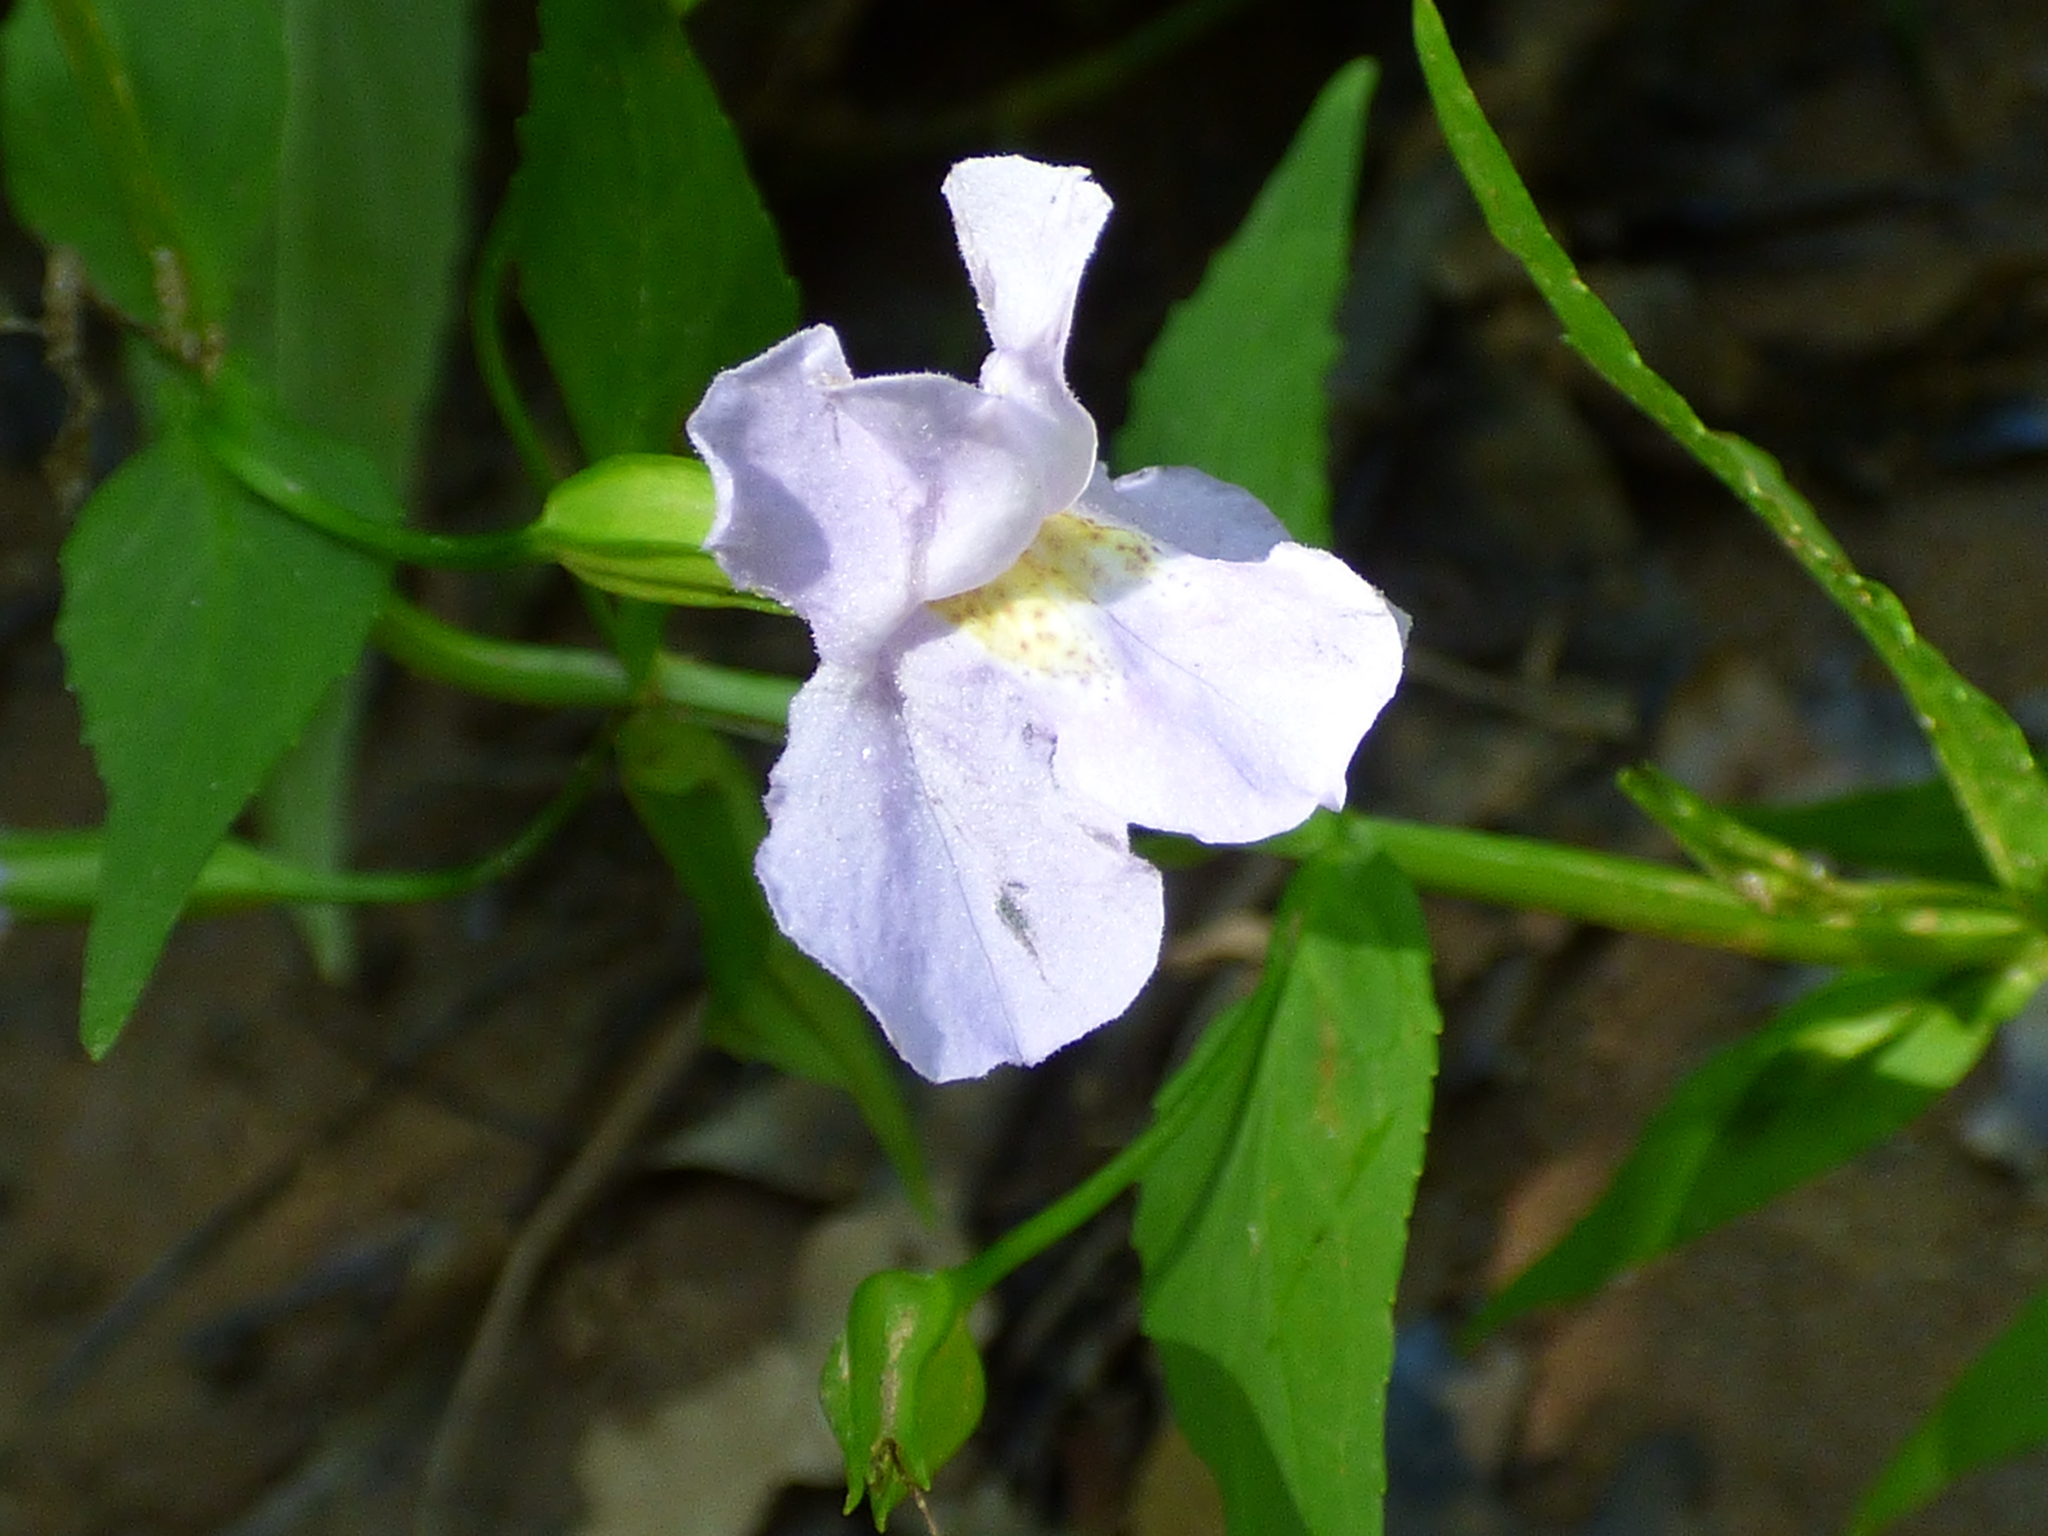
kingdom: Plantae
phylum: Tracheophyta
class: Magnoliopsida
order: Lamiales
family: Phrymaceae
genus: Mimulus
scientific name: Mimulus ringens
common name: Allegheny monkeyflower
